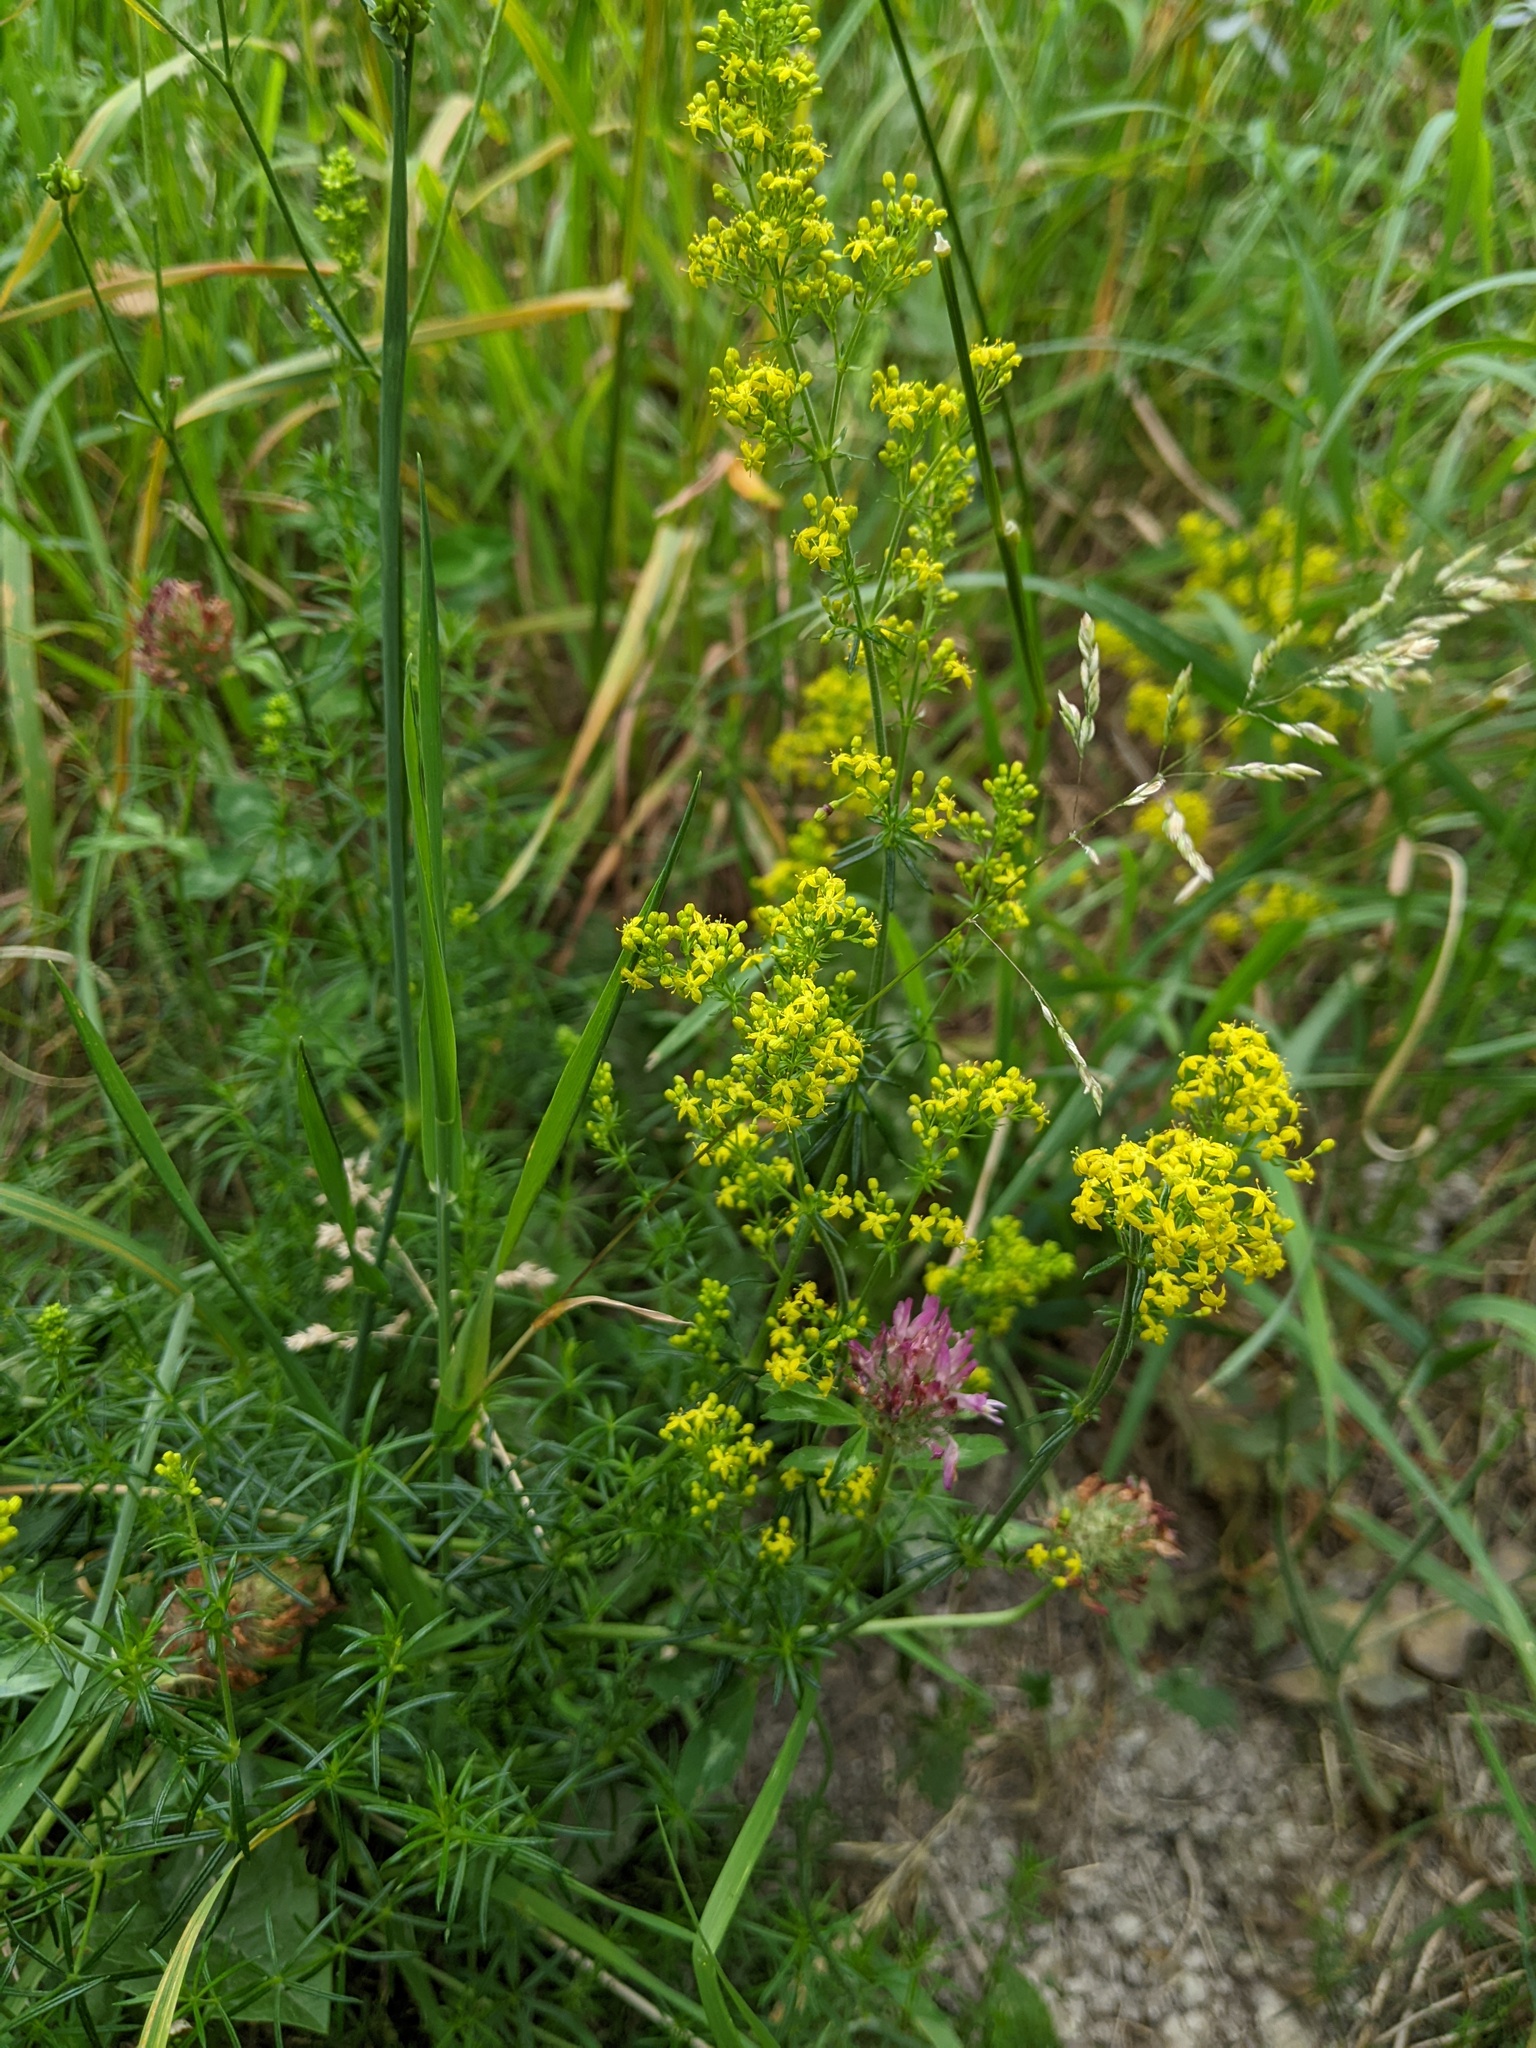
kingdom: Plantae
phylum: Tracheophyta
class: Magnoliopsida
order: Gentianales
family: Rubiaceae
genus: Galium
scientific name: Galium verum
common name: Lady's bedstraw
